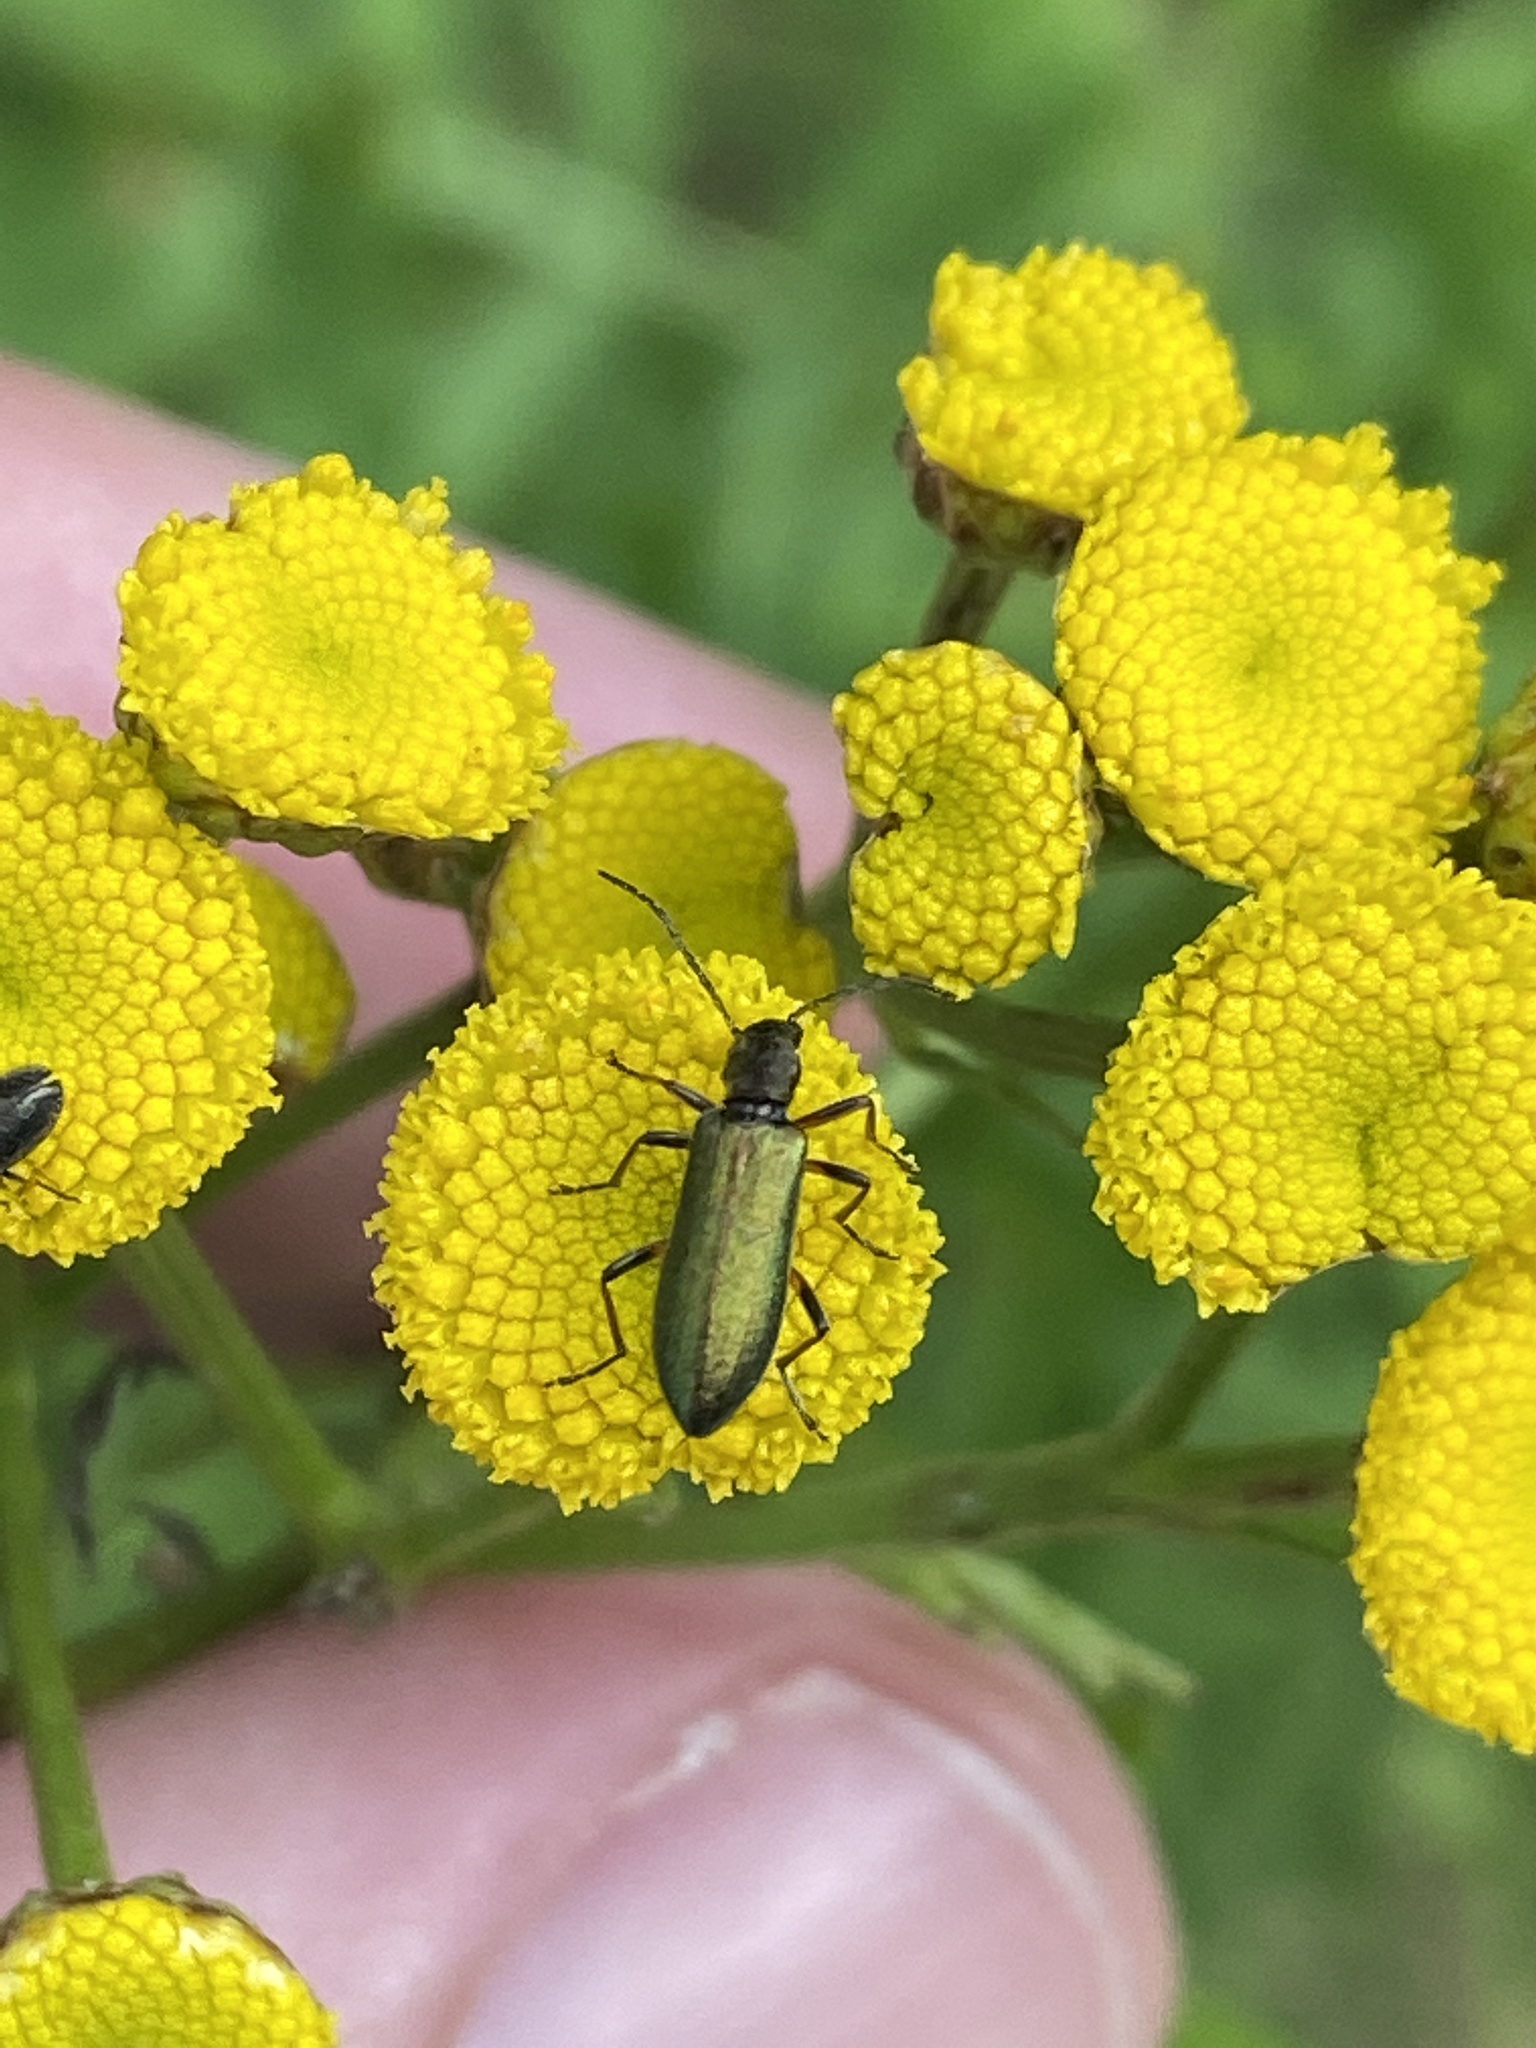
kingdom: Animalia
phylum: Arthropoda
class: Insecta
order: Coleoptera
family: Oedemeridae
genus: Chrysanthia
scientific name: Chrysanthia geniculata
